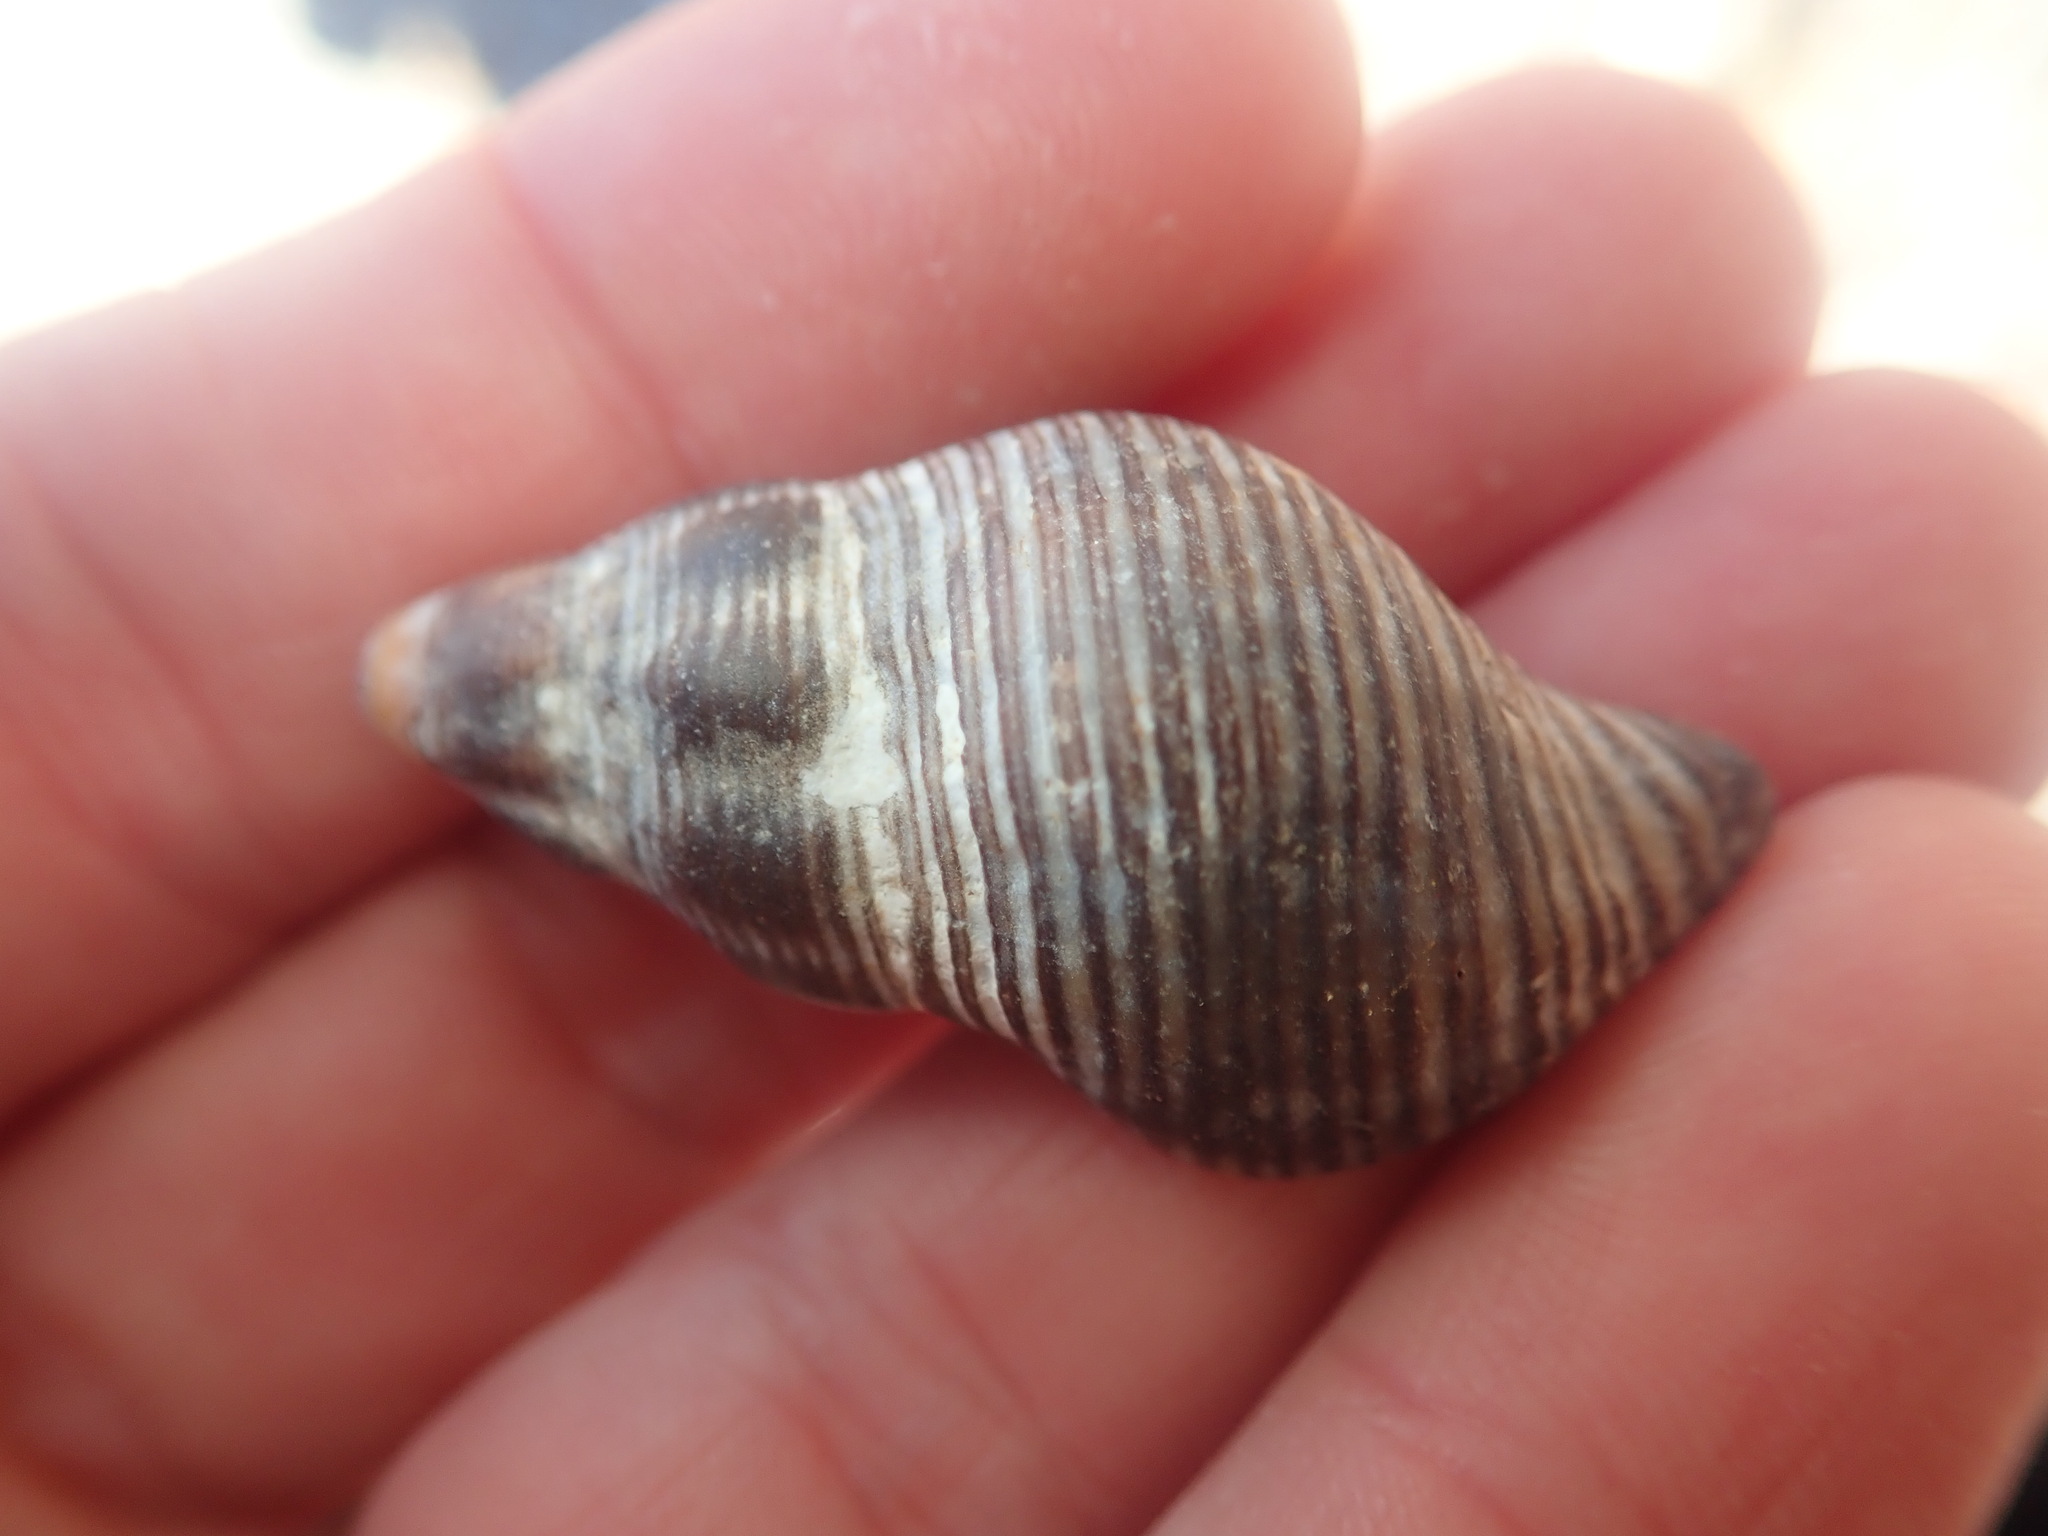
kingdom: Animalia
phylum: Mollusca
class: Gastropoda
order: Neogastropoda
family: Tudiclidae
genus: Lirabuccinum
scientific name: Lirabuccinum dirum
